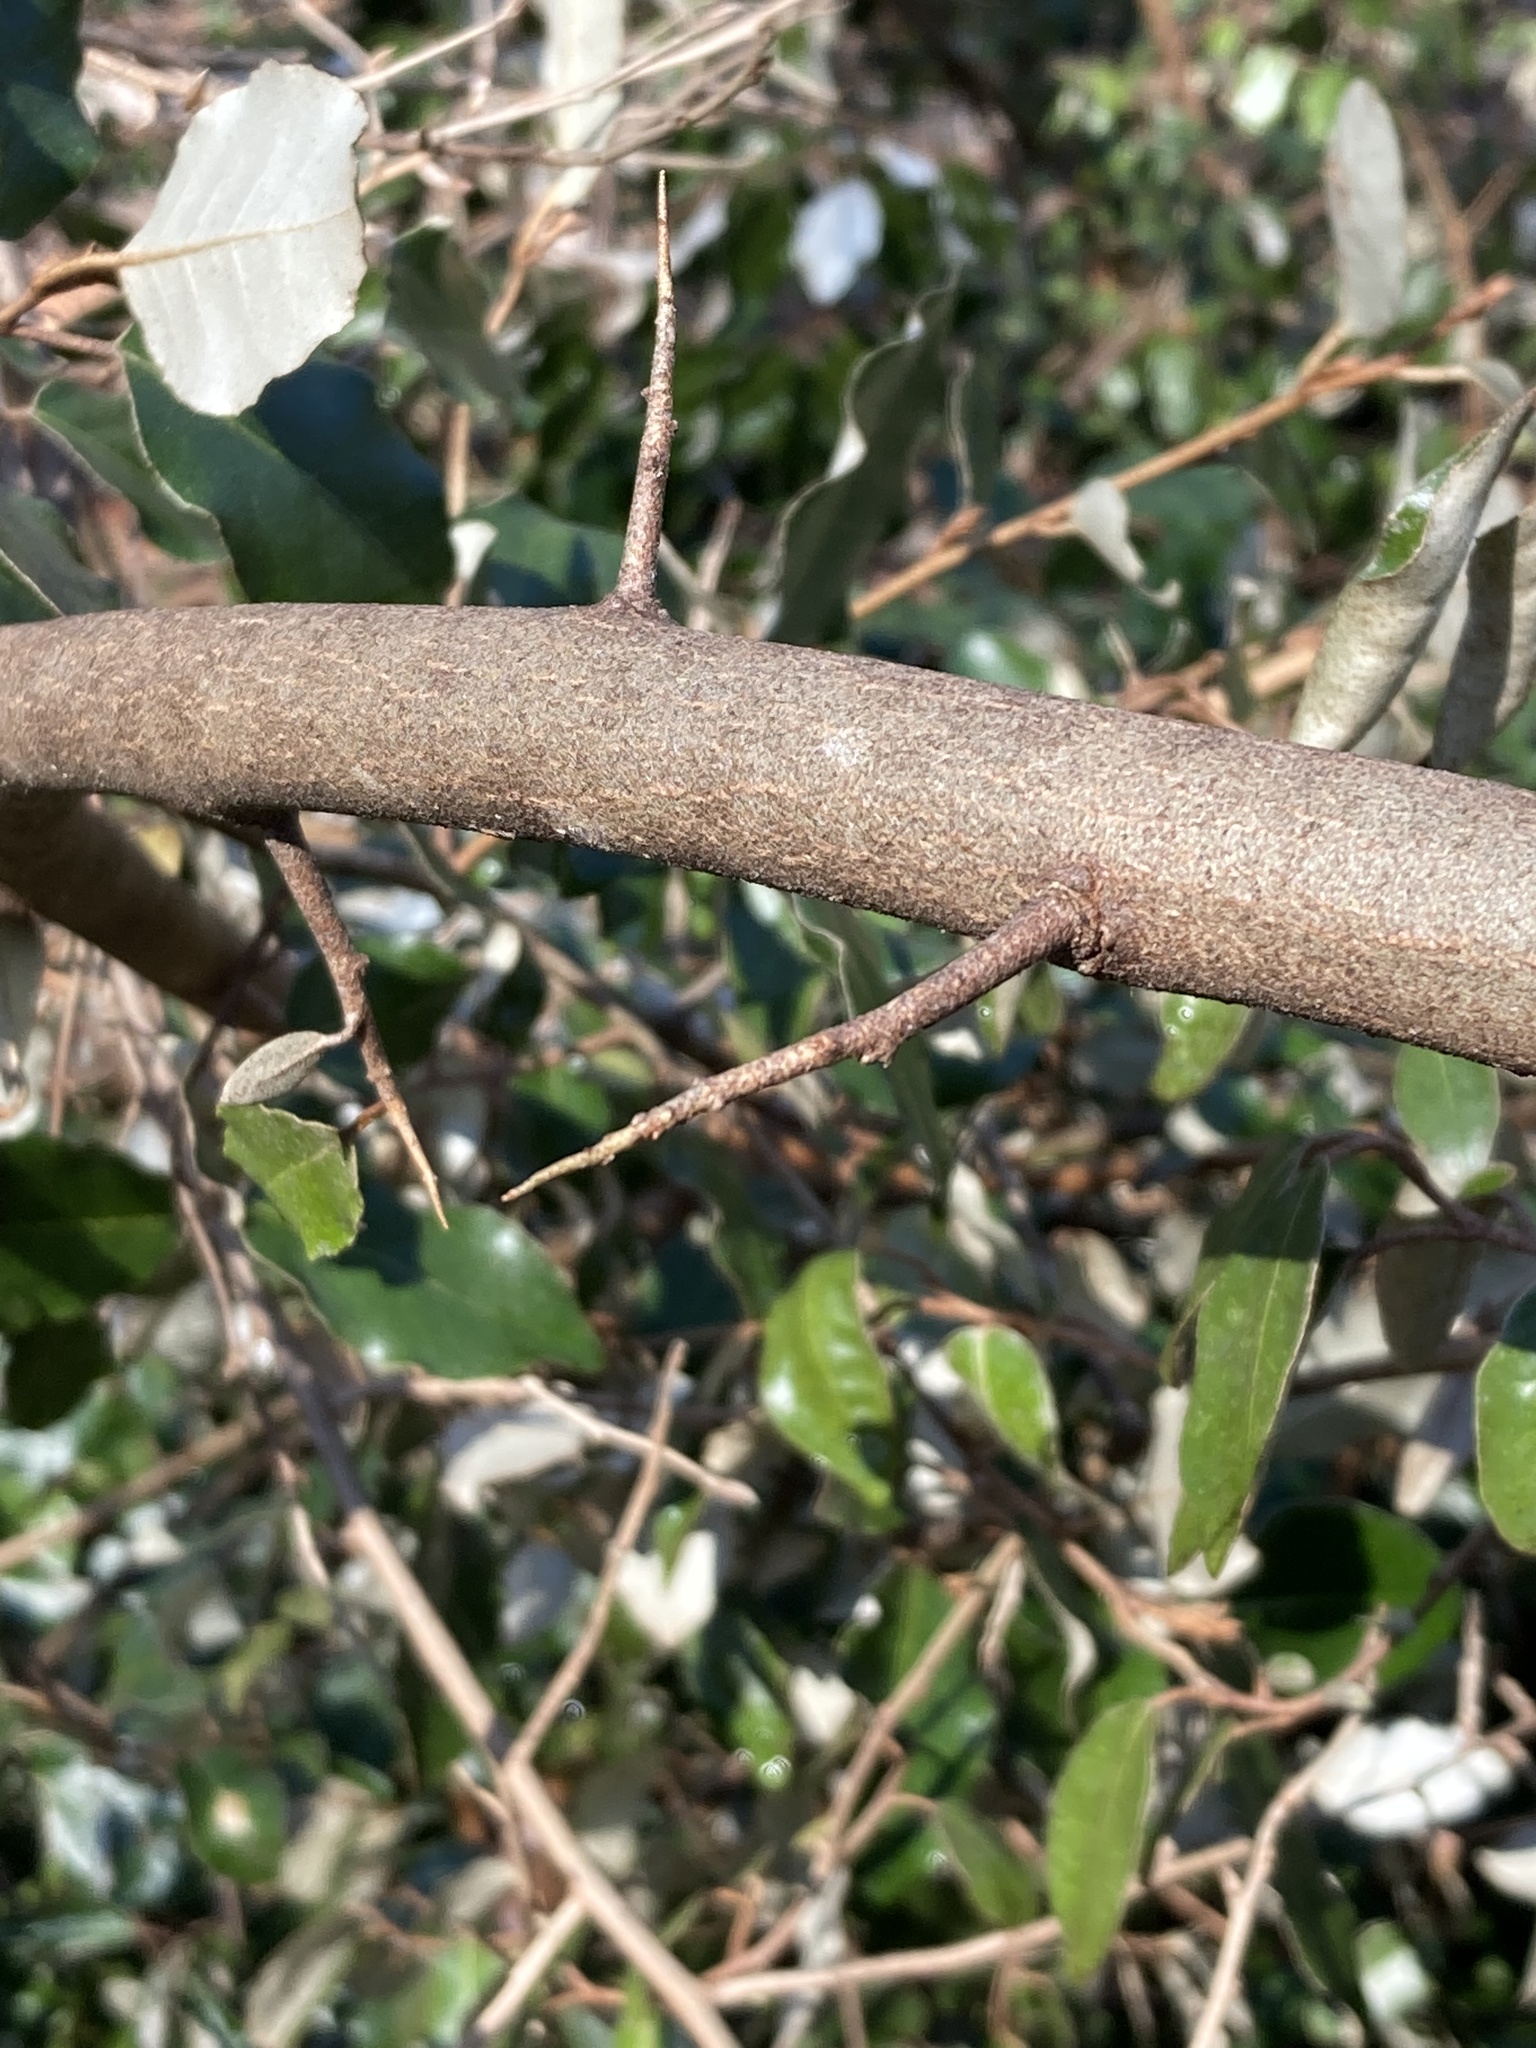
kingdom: Plantae
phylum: Tracheophyta
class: Magnoliopsida
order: Rosales
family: Elaeagnaceae
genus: Elaeagnus
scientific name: Elaeagnus pungens
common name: Spiny oleaster
